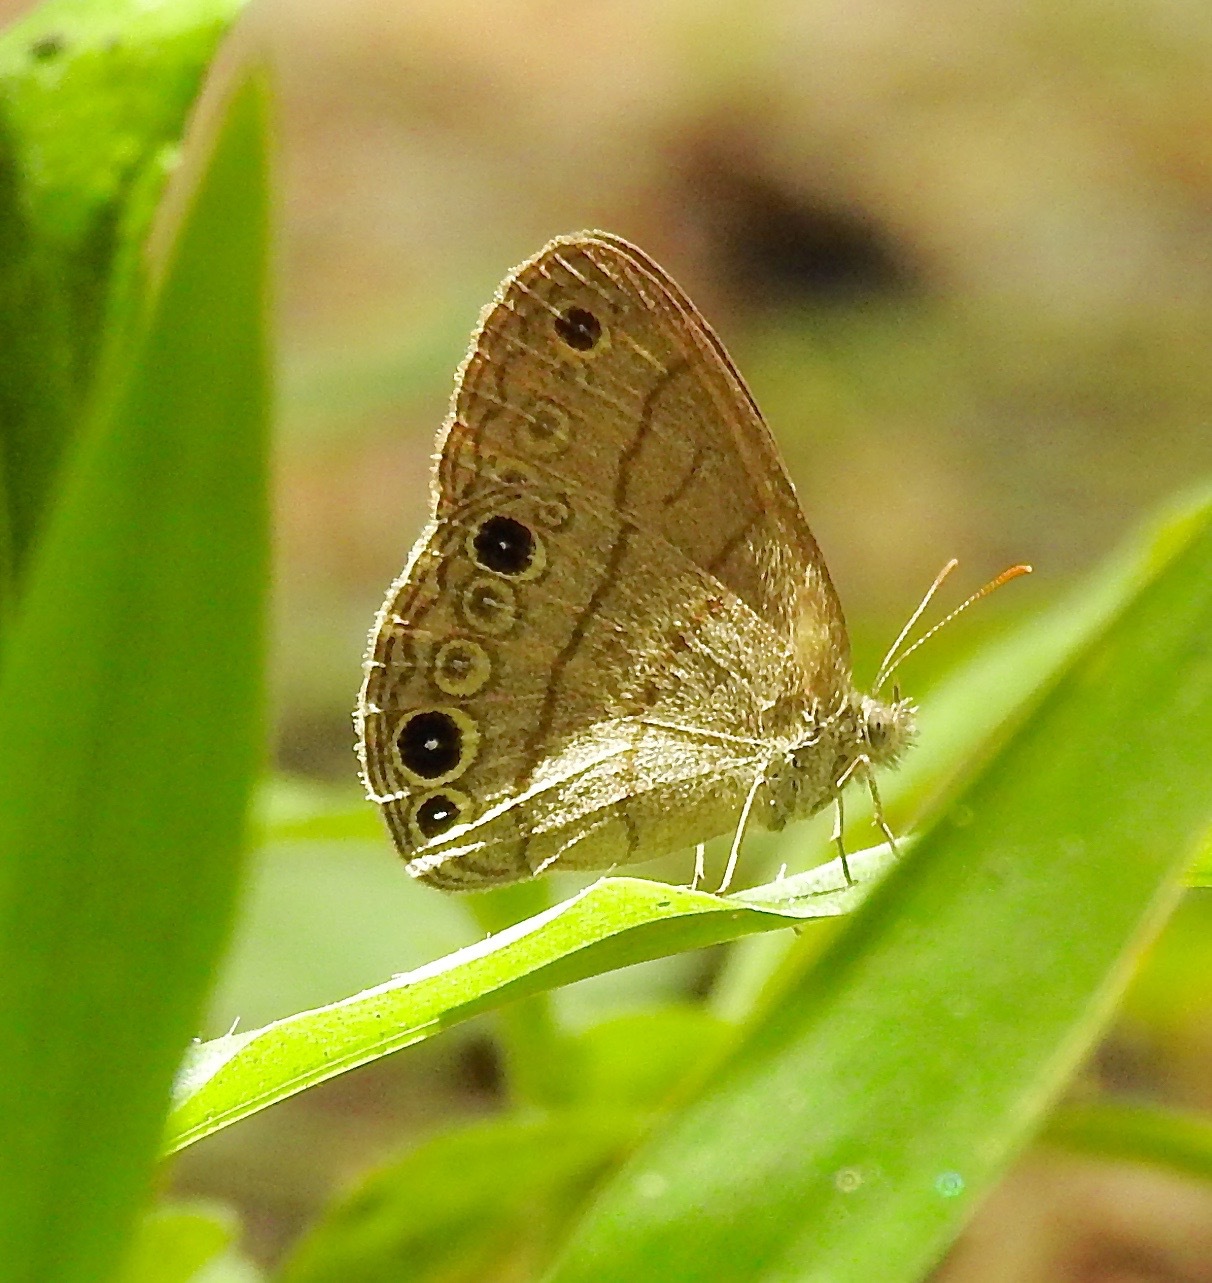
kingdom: Animalia
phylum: Arthropoda
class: Insecta
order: Lepidoptera
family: Nymphalidae
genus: Hermeuptychia
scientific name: Hermeuptychia intricata
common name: Intricate satyr
